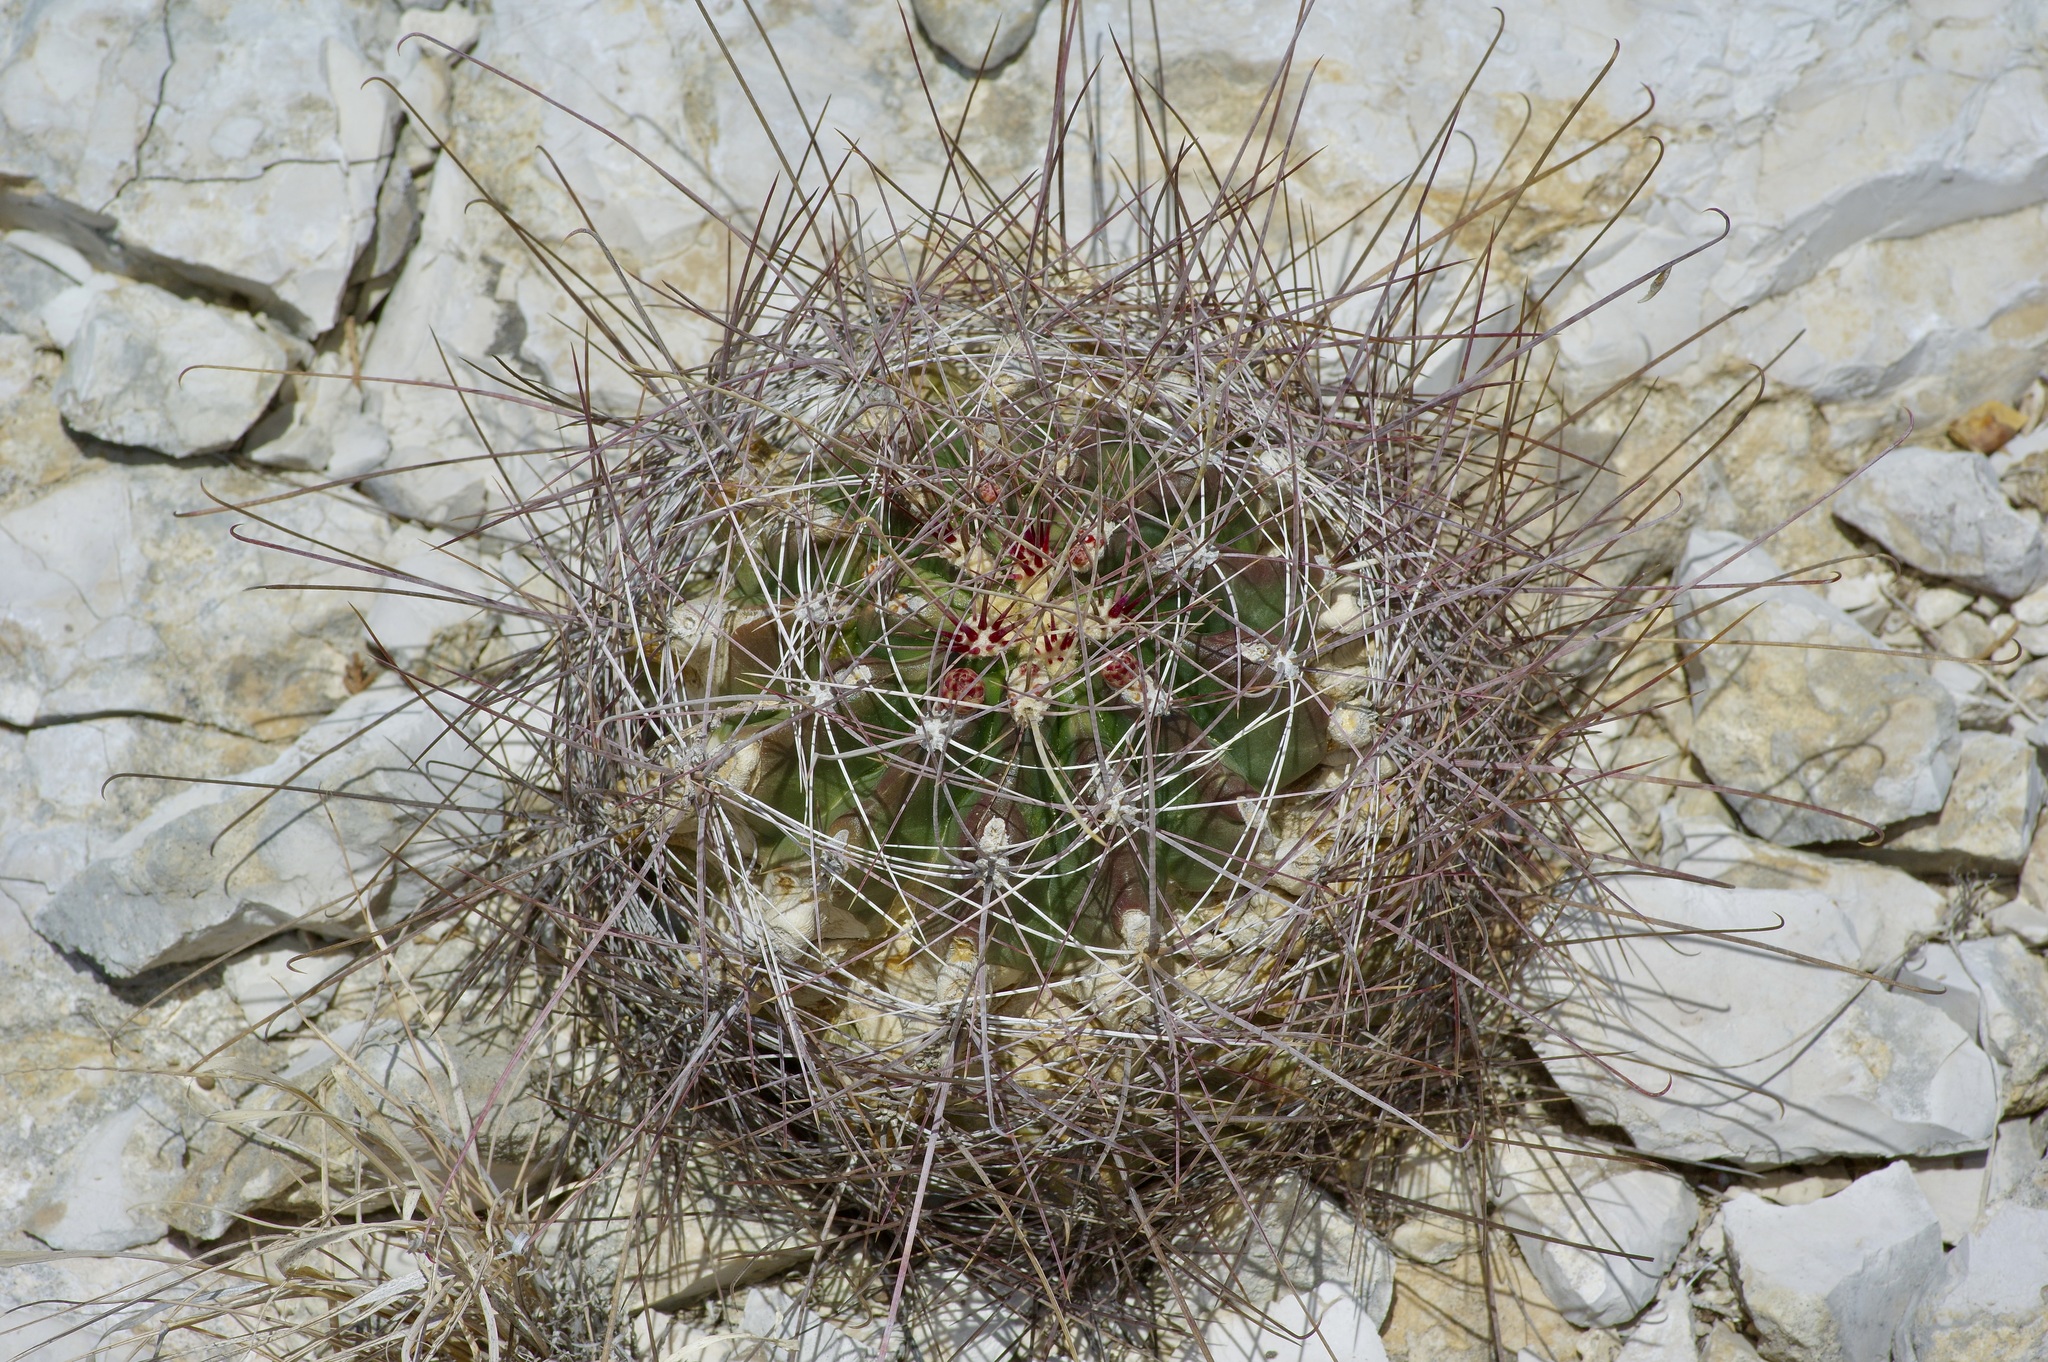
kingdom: Plantae
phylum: Tracheophyta
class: Magnoliopsida
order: Caryophyllales
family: Cactaceae
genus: Bisnaga
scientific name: Bisnaga hamatacantha
